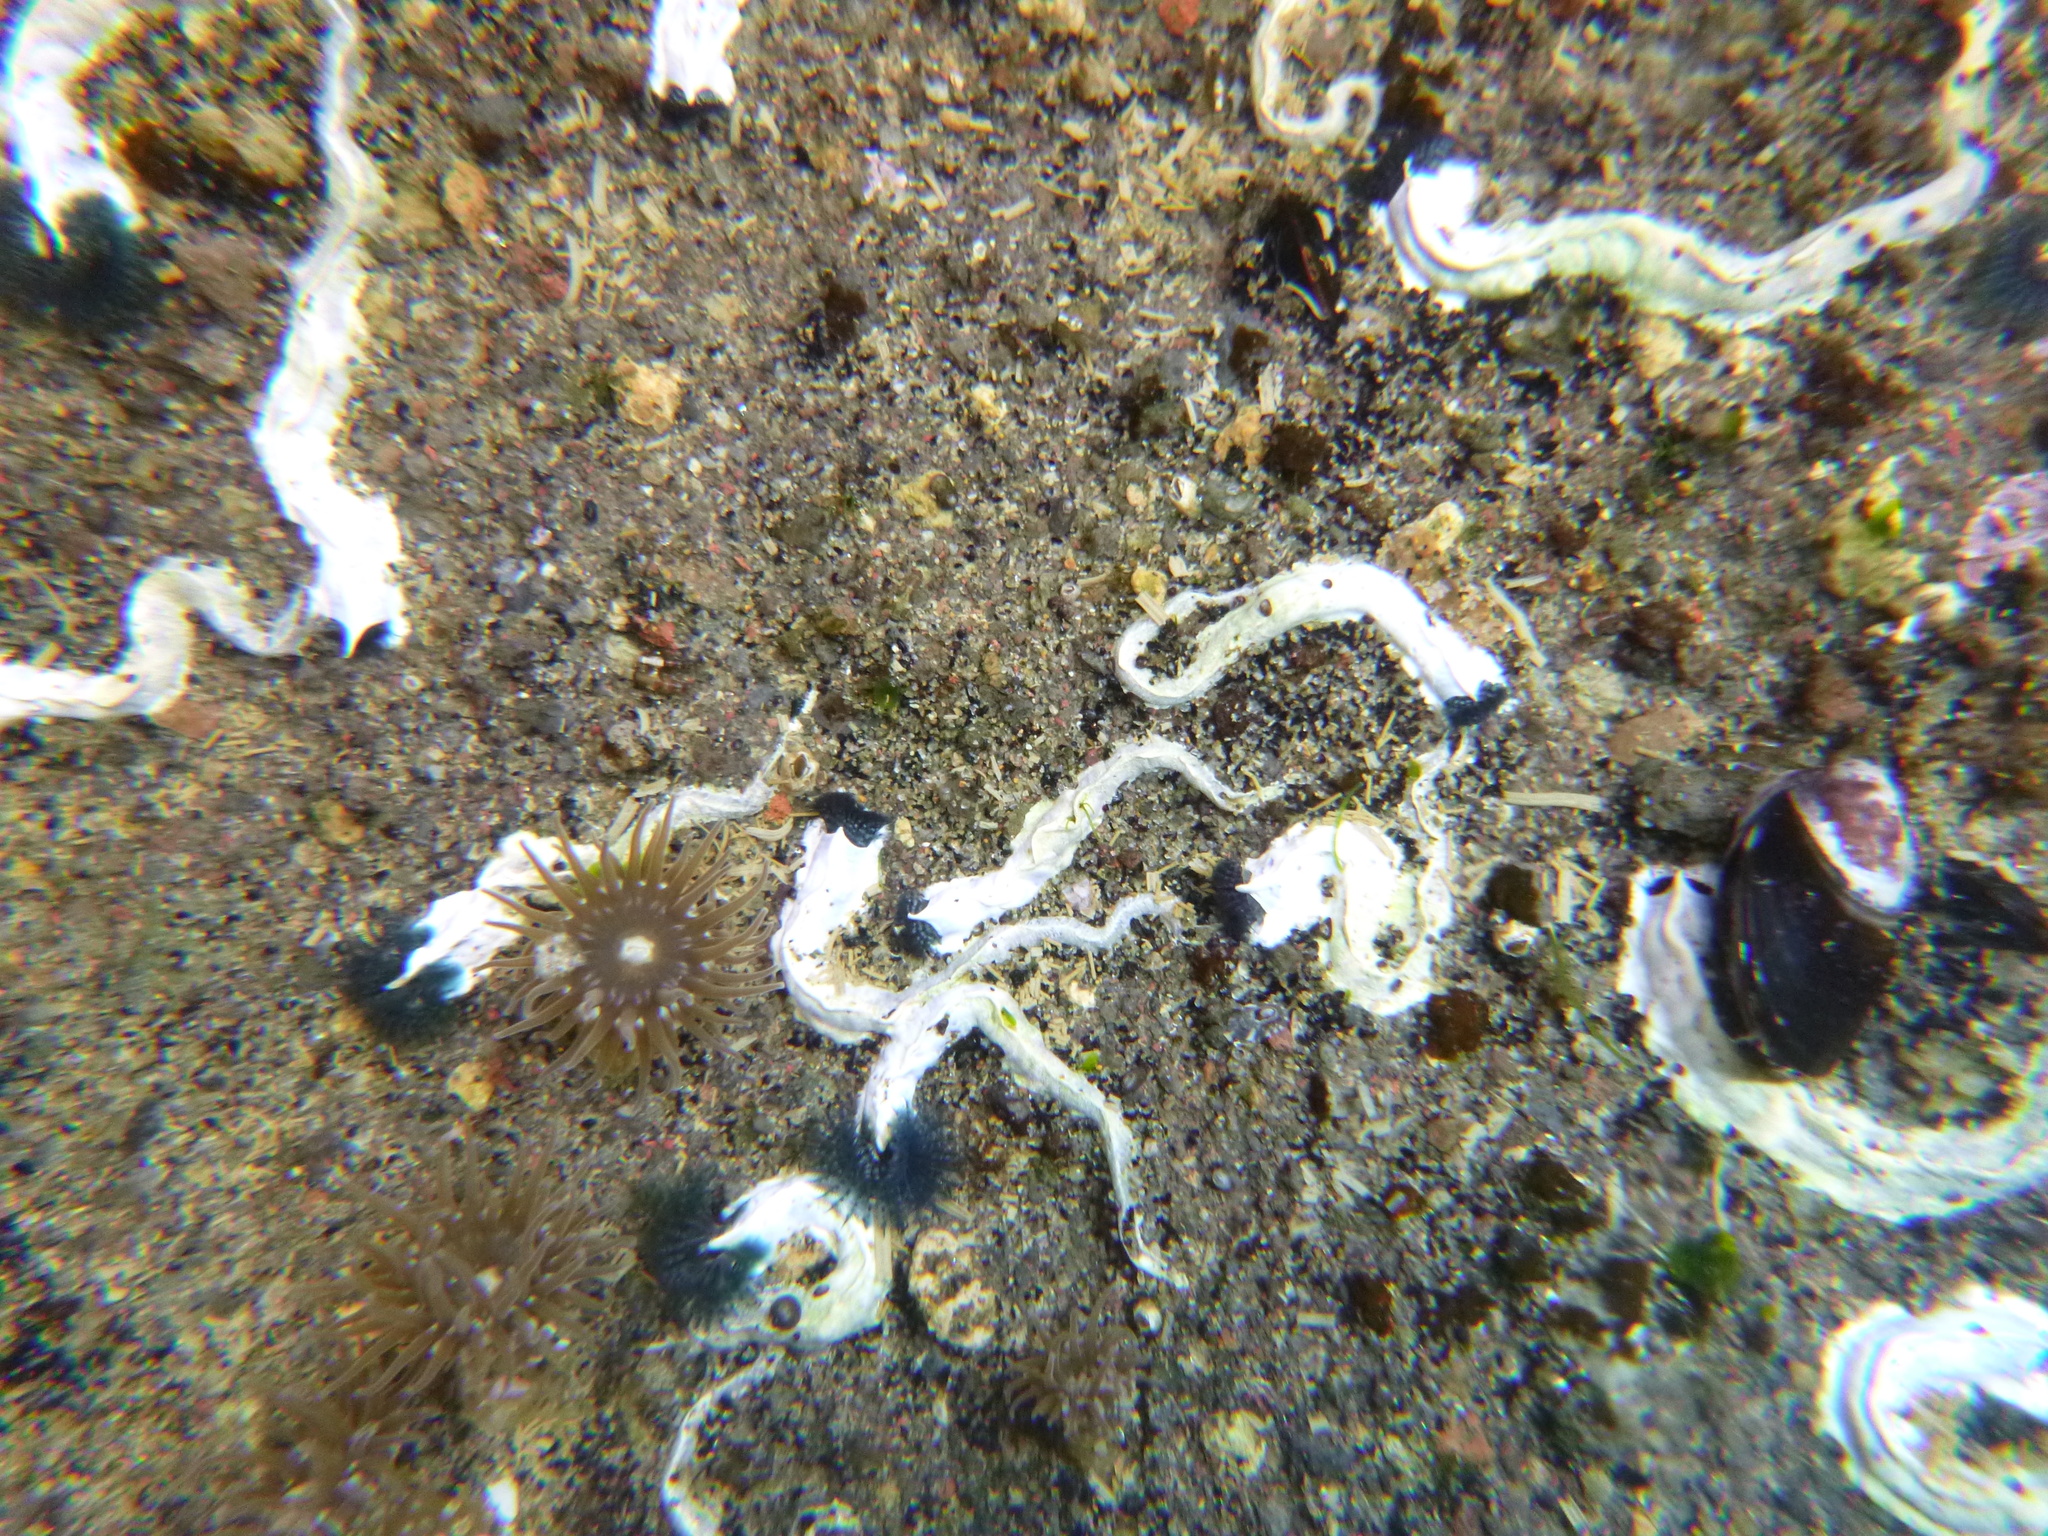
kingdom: Animalia
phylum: Annelida
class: Polychaeta
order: Sabellida
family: Serpulidae
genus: Spirobranchus
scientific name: Spirobranchus cariniferus
